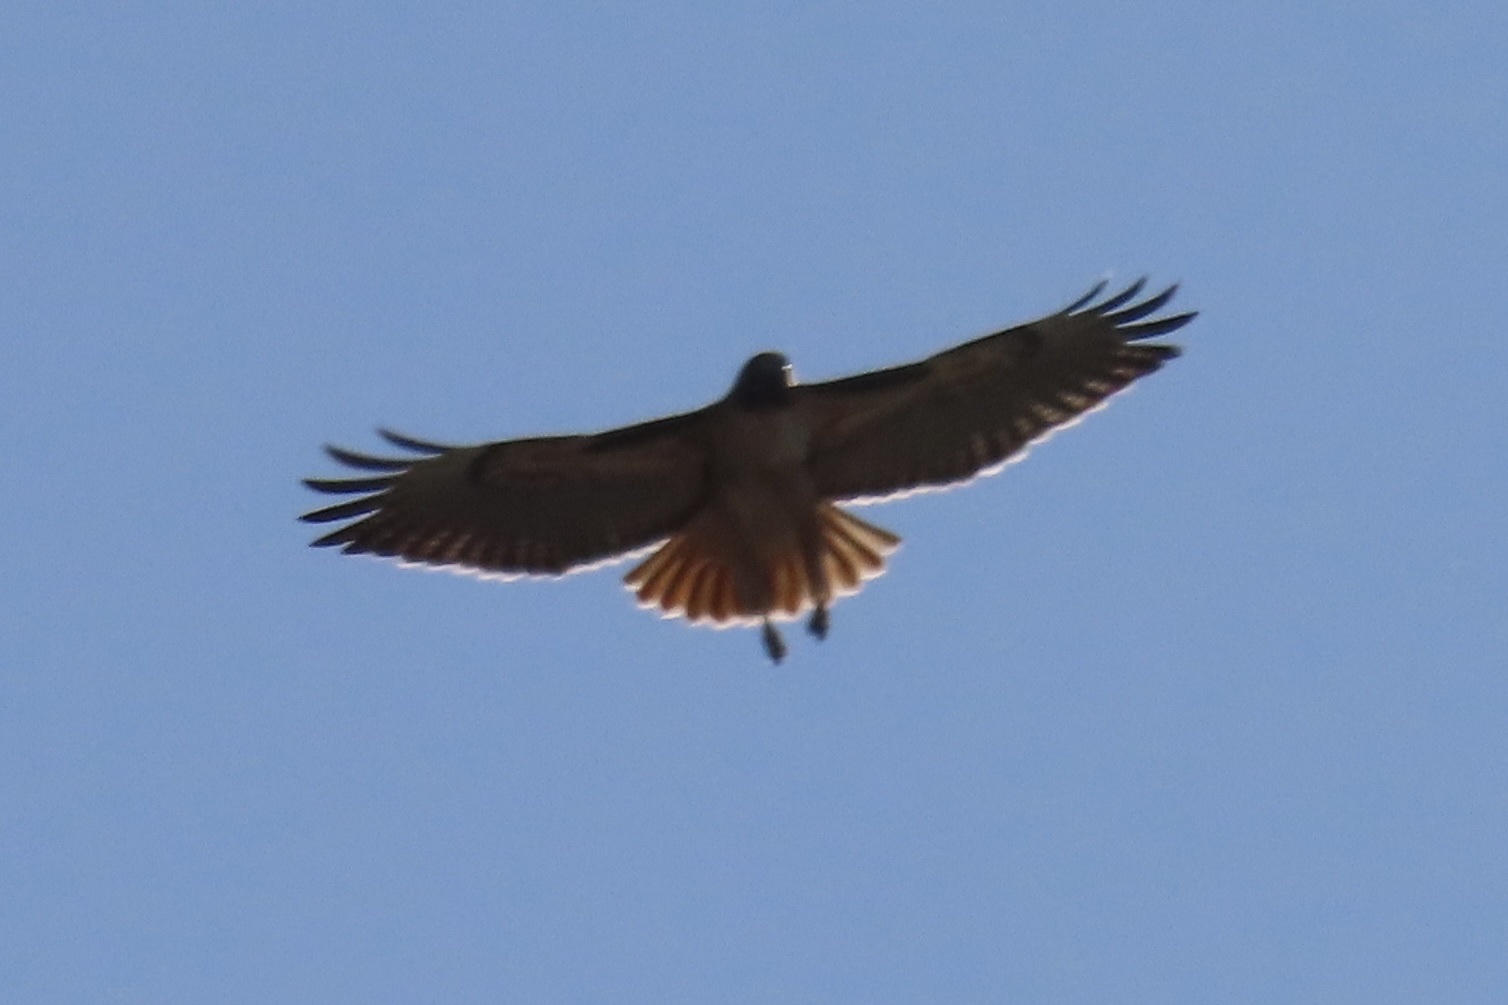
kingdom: Animalia
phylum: Chordata
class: Aves
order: Accipitriformes
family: Accipitridae
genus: Buteo
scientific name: Buteo jamaicensis
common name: Red-tailed hawk
